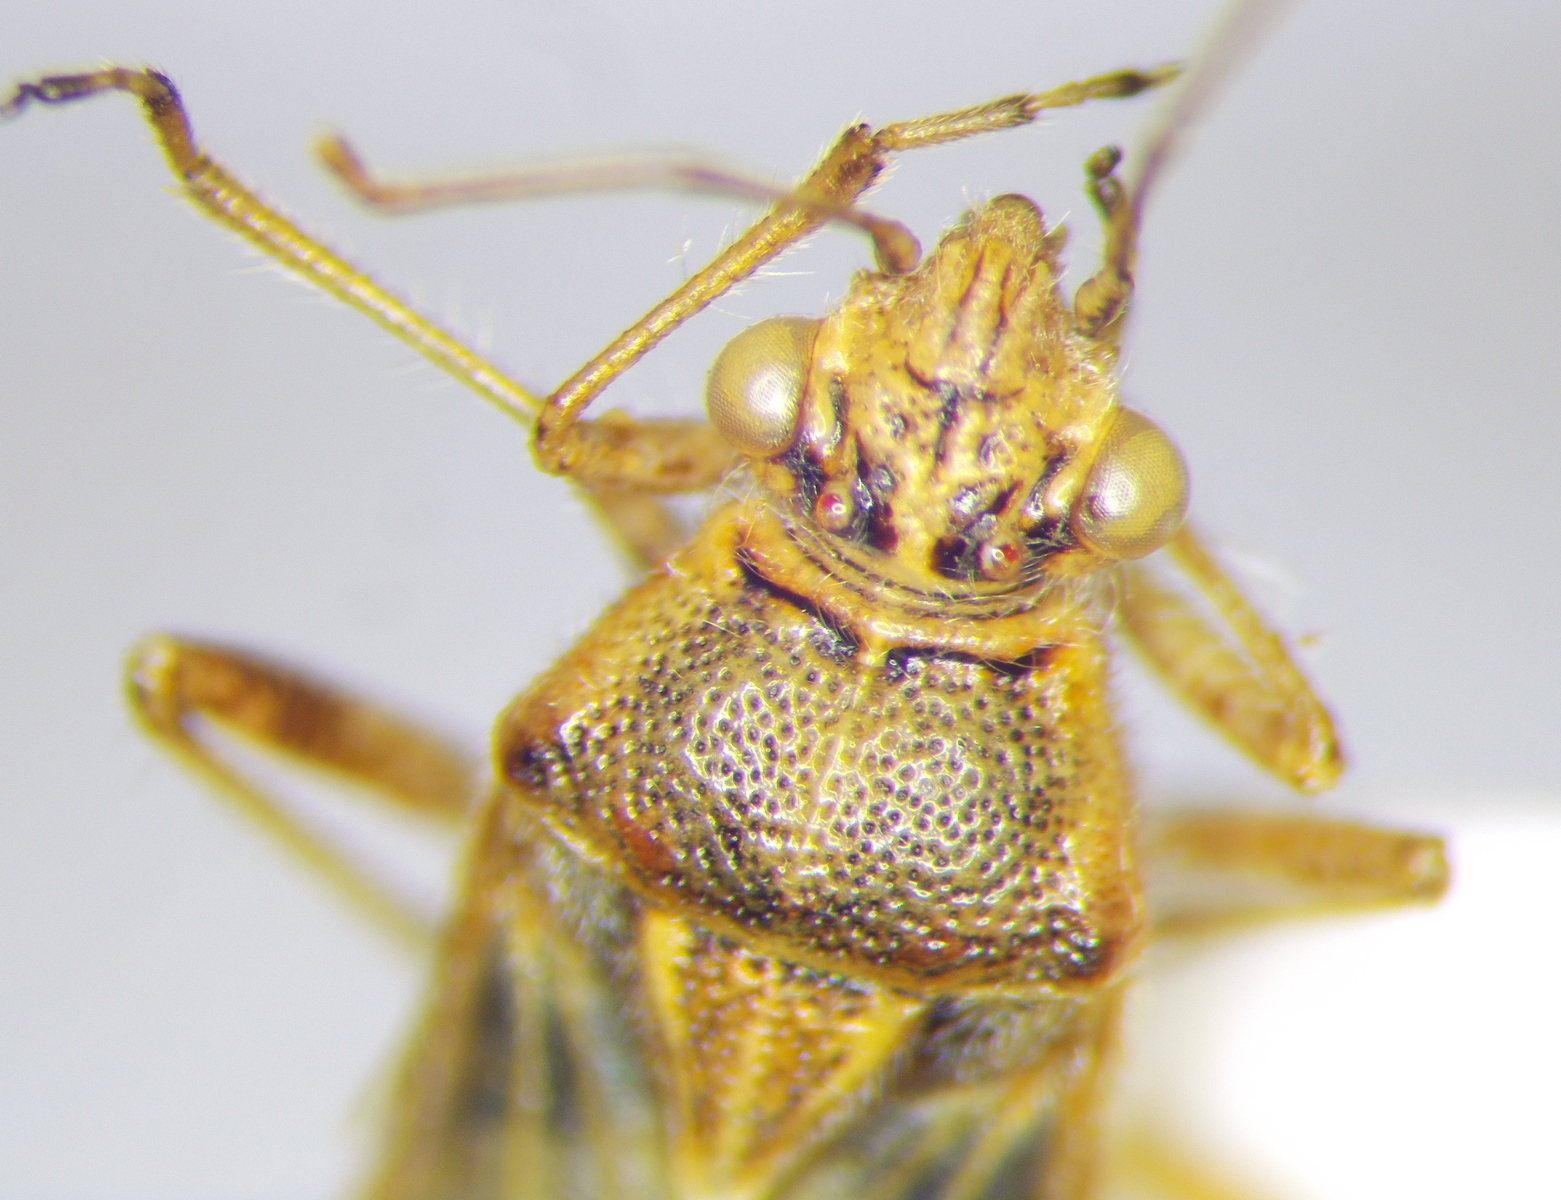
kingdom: Animalia
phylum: Arthropoda
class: Insecta
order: Hemiptera
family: Rhopalidae
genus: Liorhyssus
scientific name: Liorhyssus hyalinus
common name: Scentless plant bug
